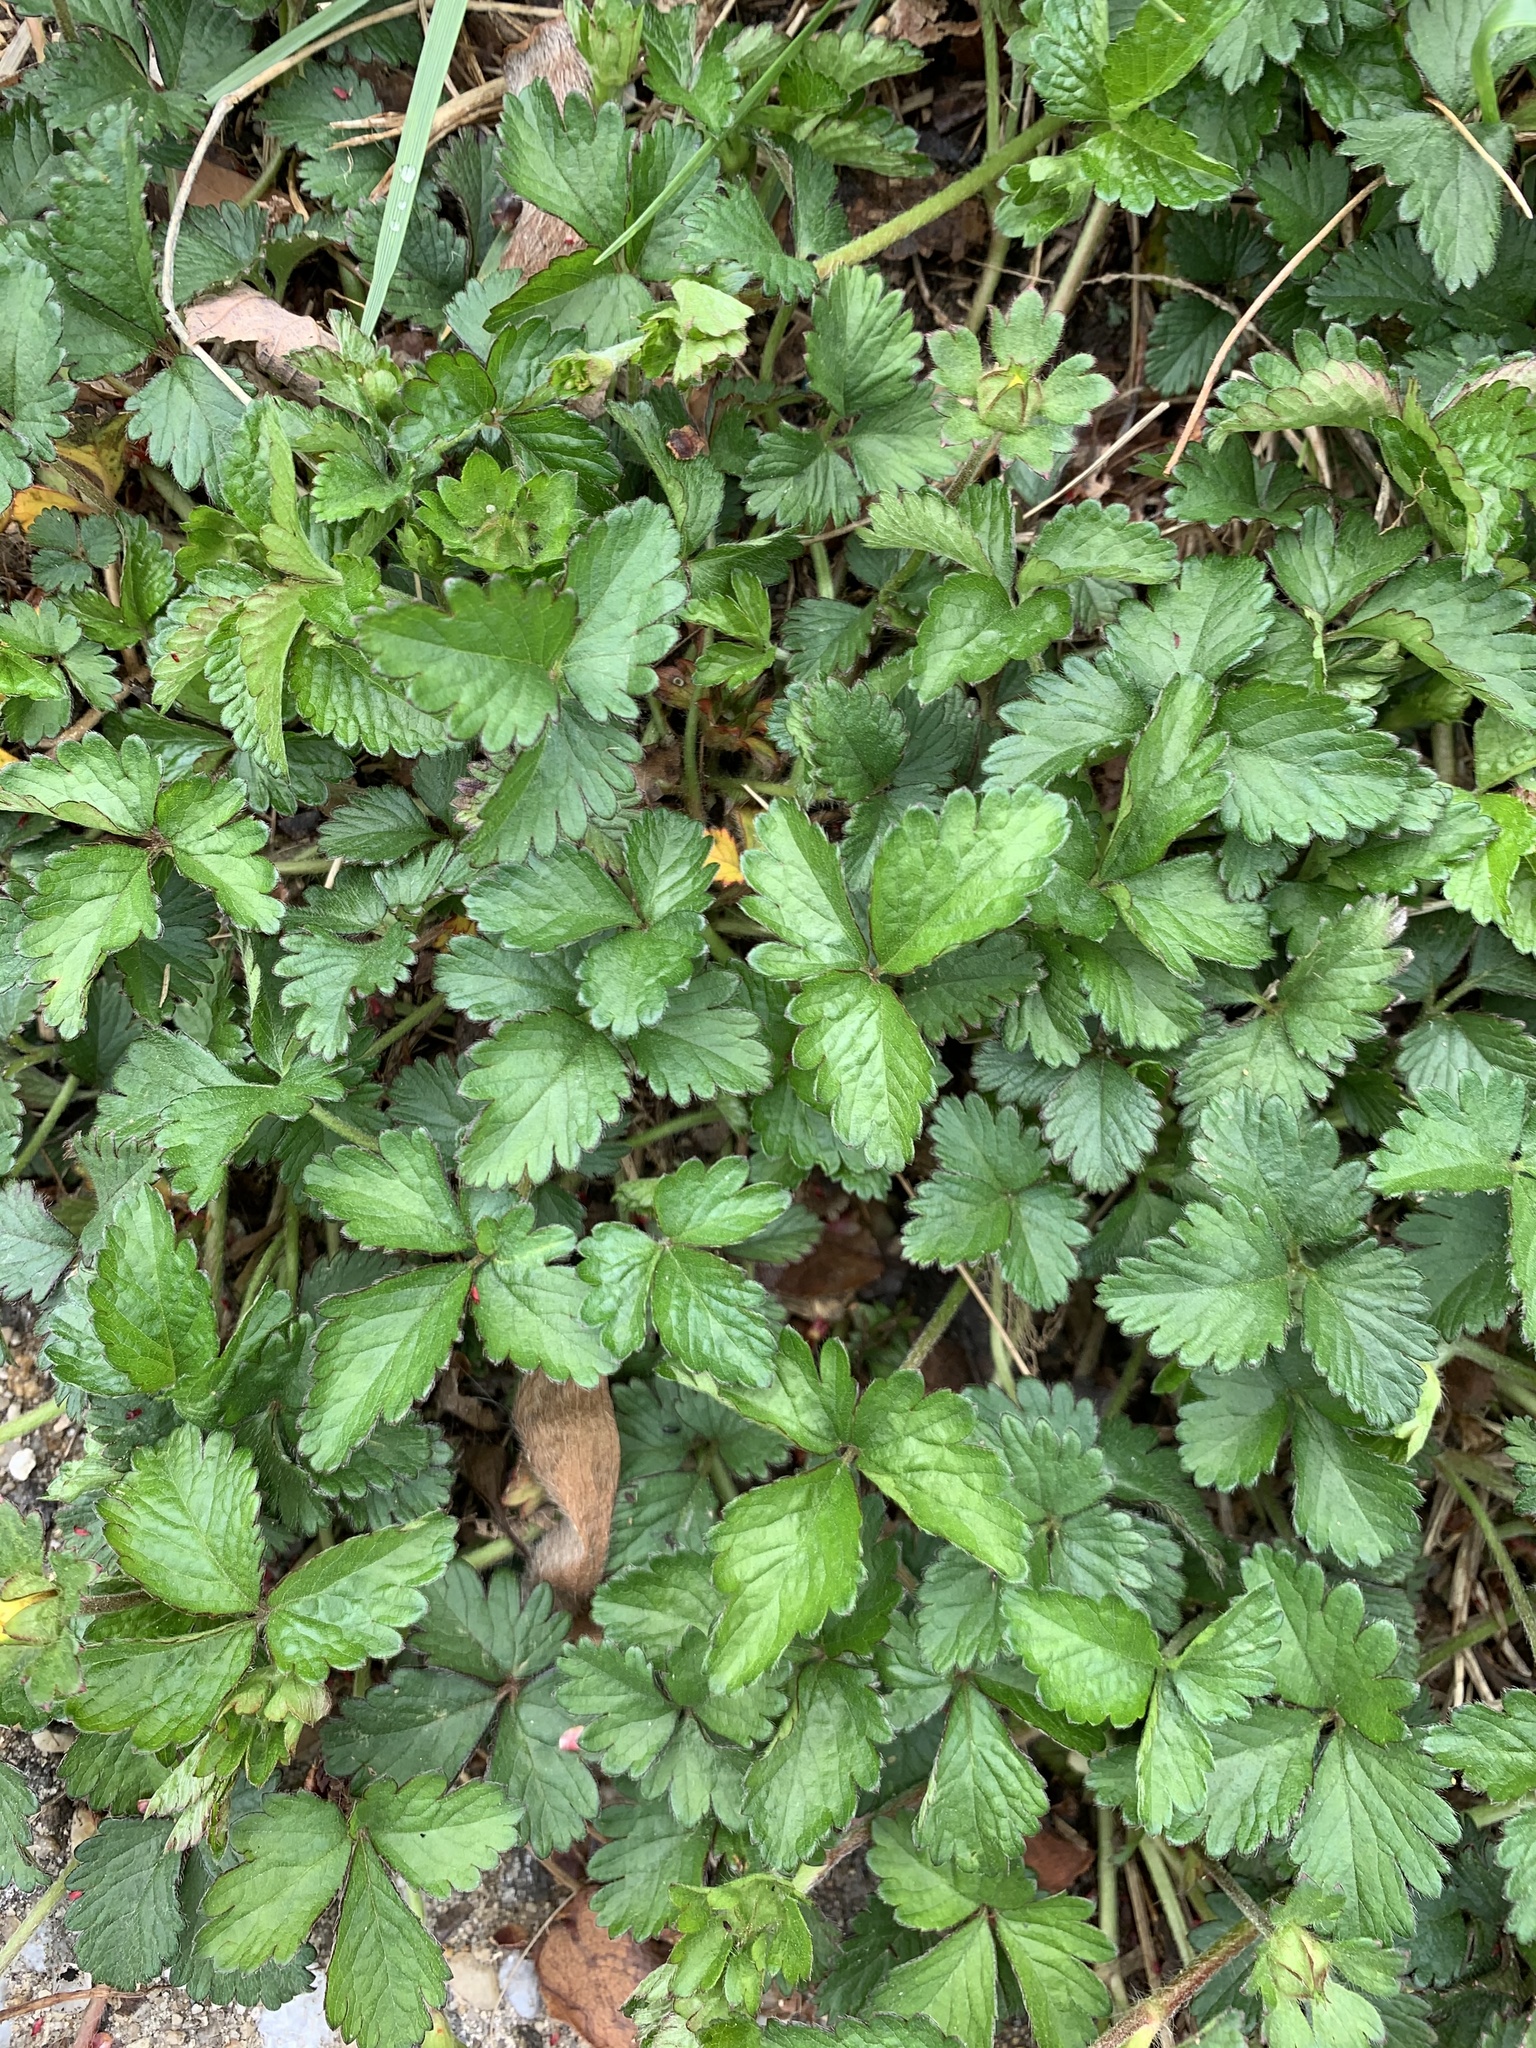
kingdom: Plantae
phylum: Tracheophyta
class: Magnoliopsida
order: Rosales
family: Rosaceae
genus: Potentilla
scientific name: Potentilla indica
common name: Yellow-flowered strawberry
